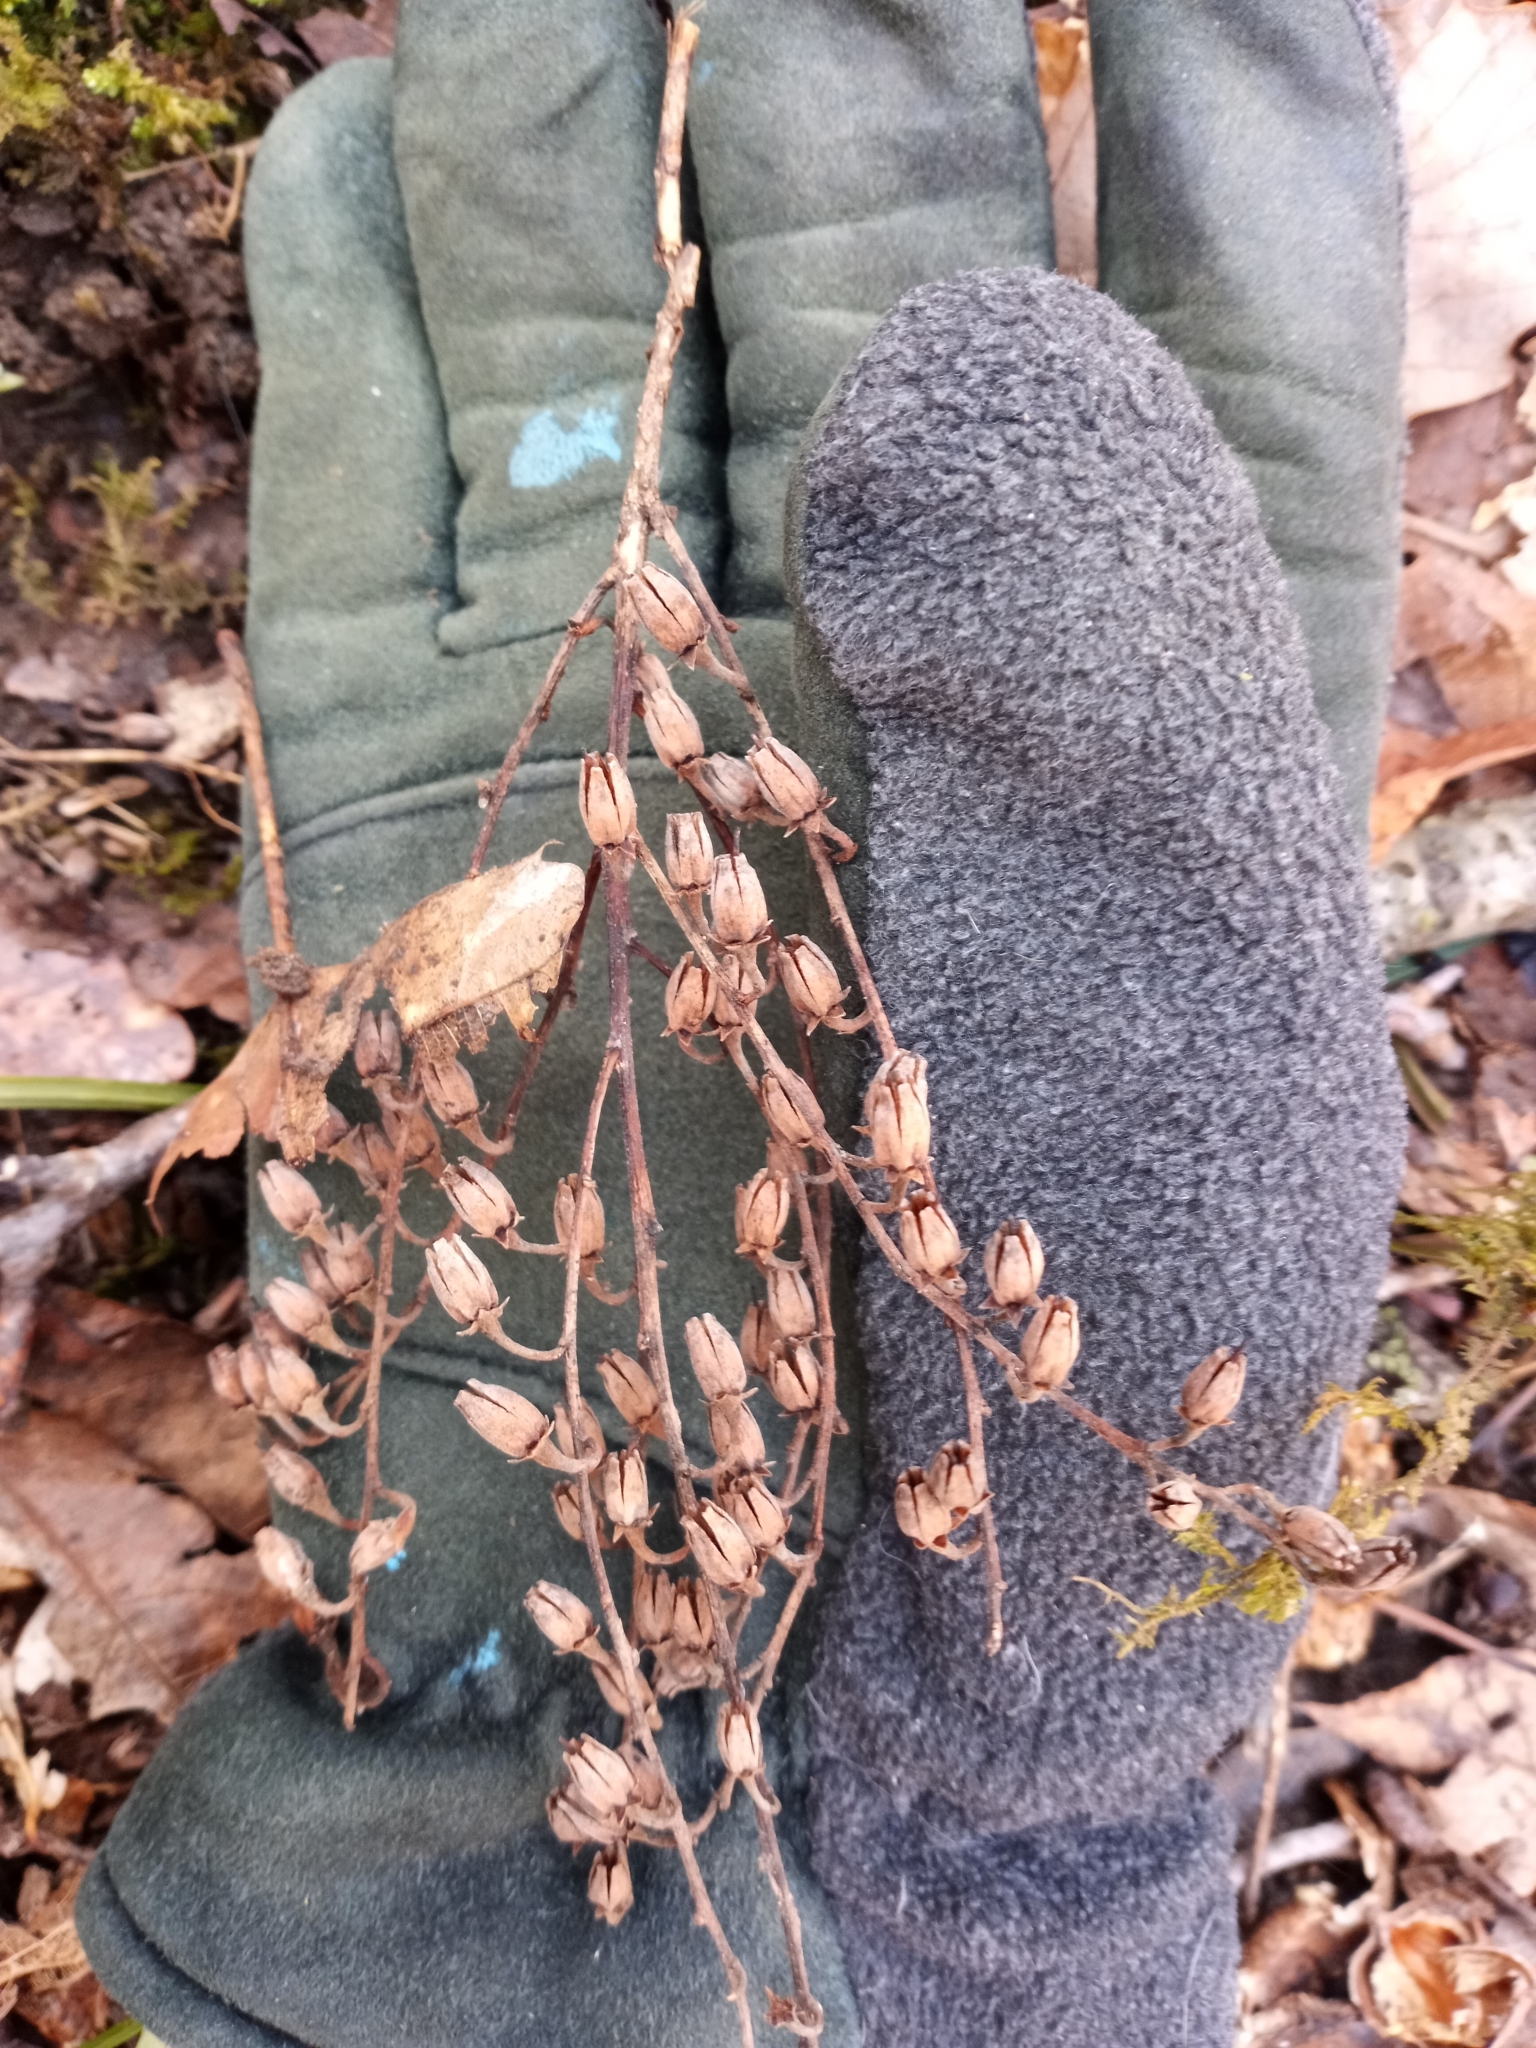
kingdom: Plantae
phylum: Tracheophyta
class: Magnoliopsida
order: Ericales
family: Ericaceae
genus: Oxydendrum
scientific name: Oxydendrum arboreum
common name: Sourwood
